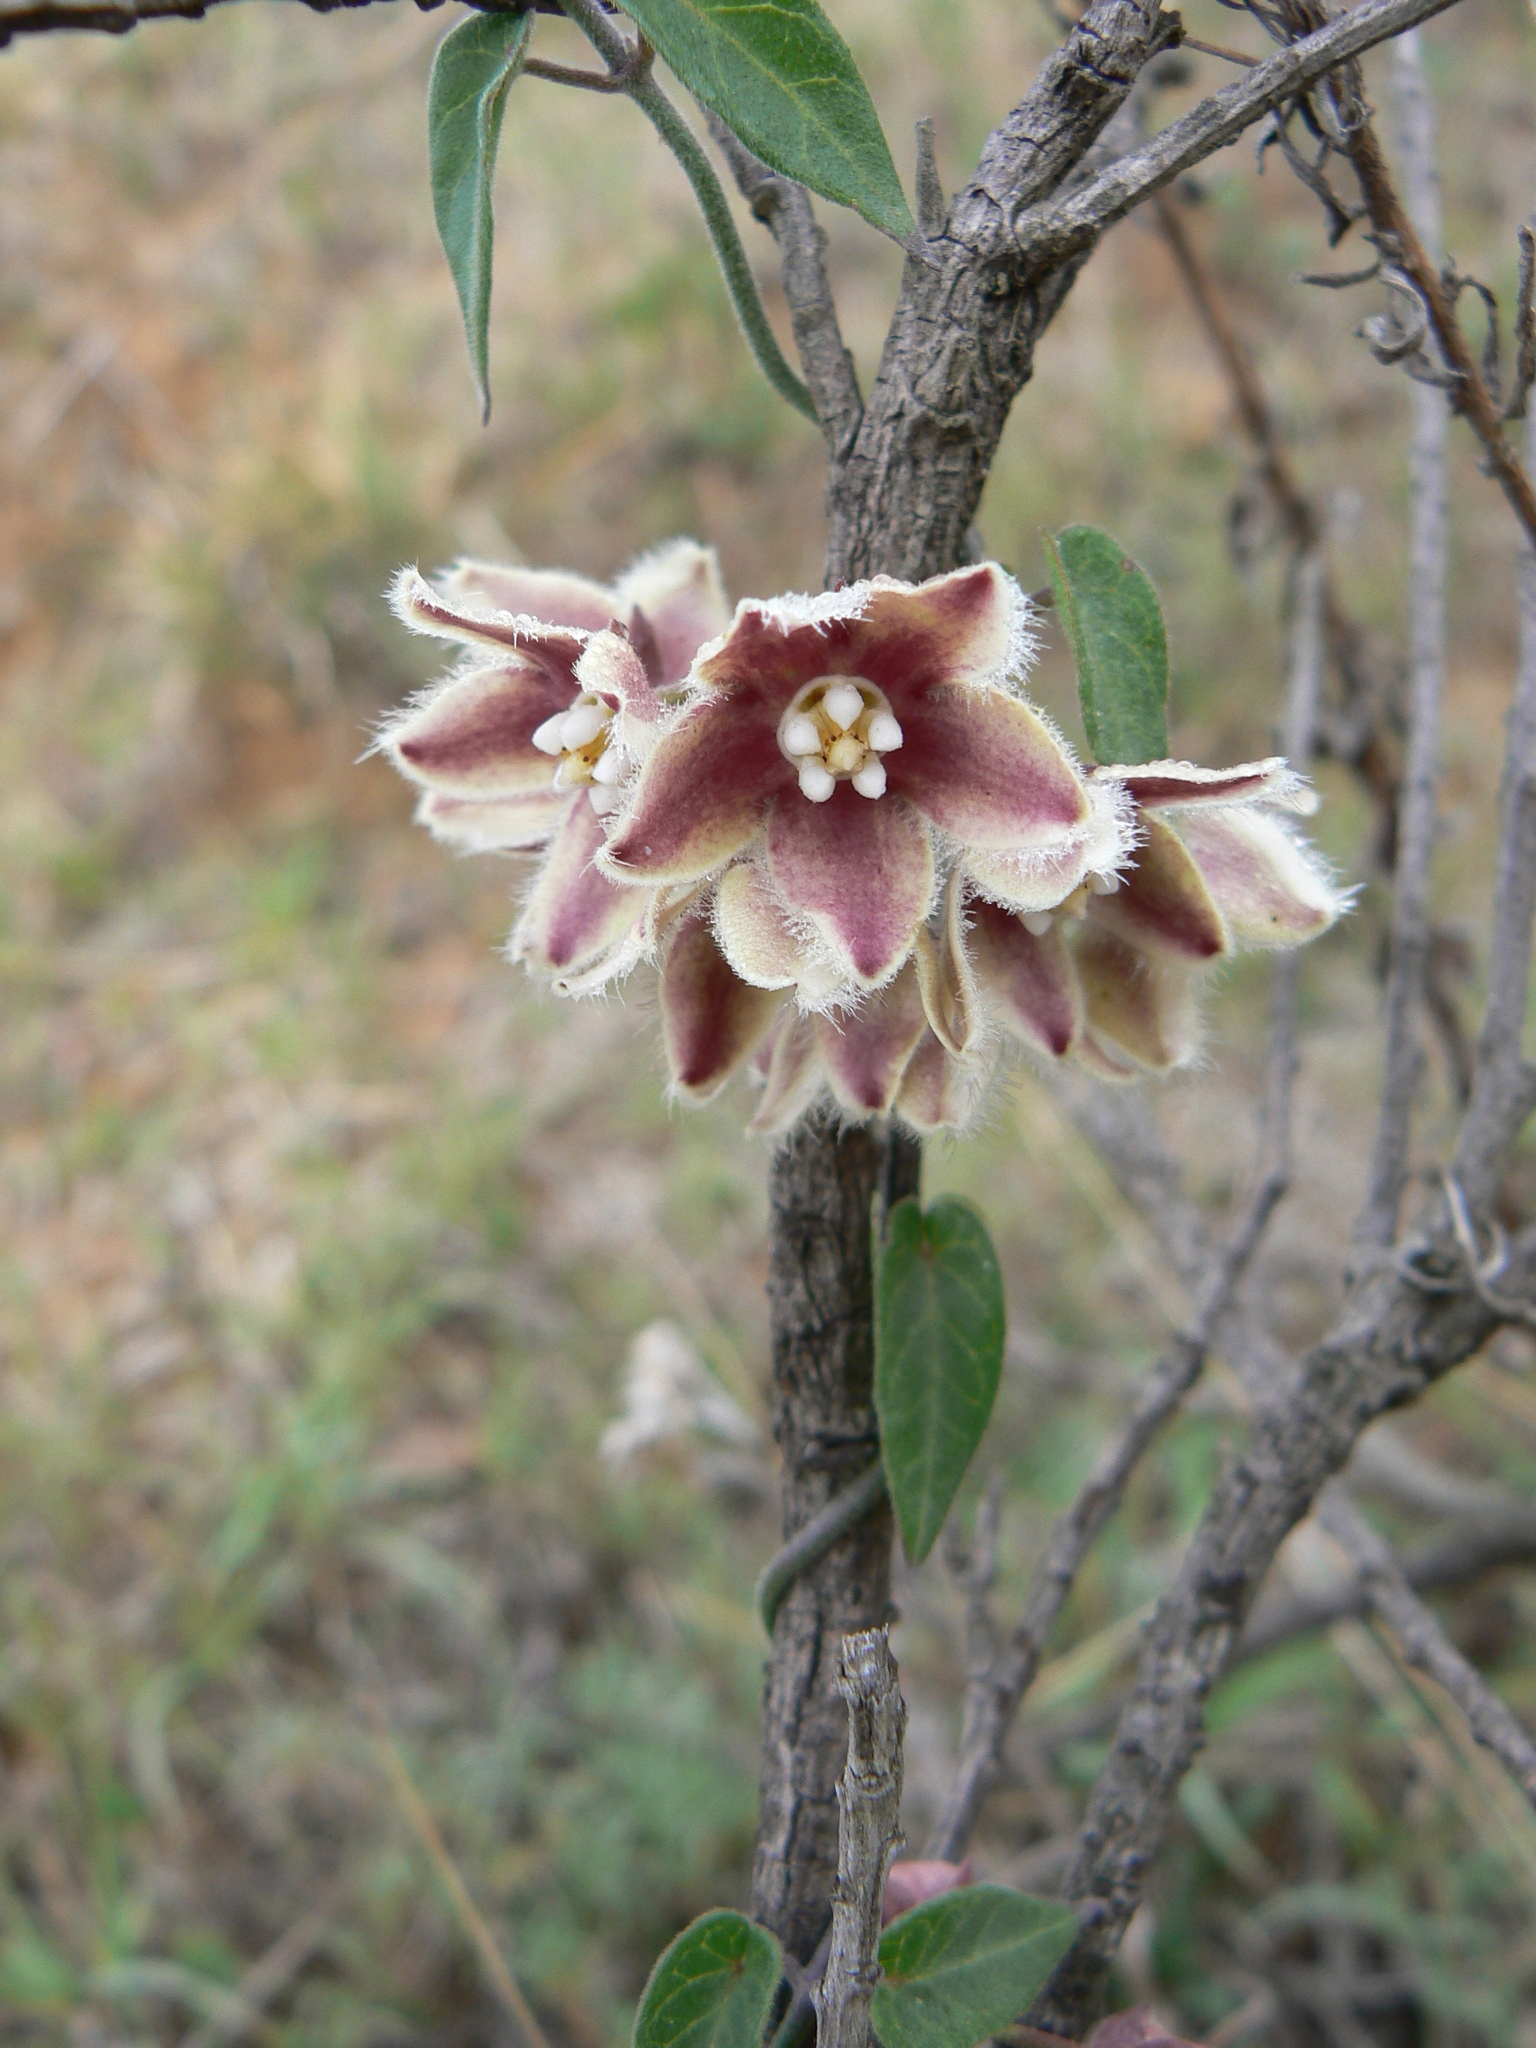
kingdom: Plantae
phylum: Tracheophyta
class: Magnoliopsida
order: Gentianales
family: Apocynaceae
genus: Funastrum
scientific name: Funastrum elegans
